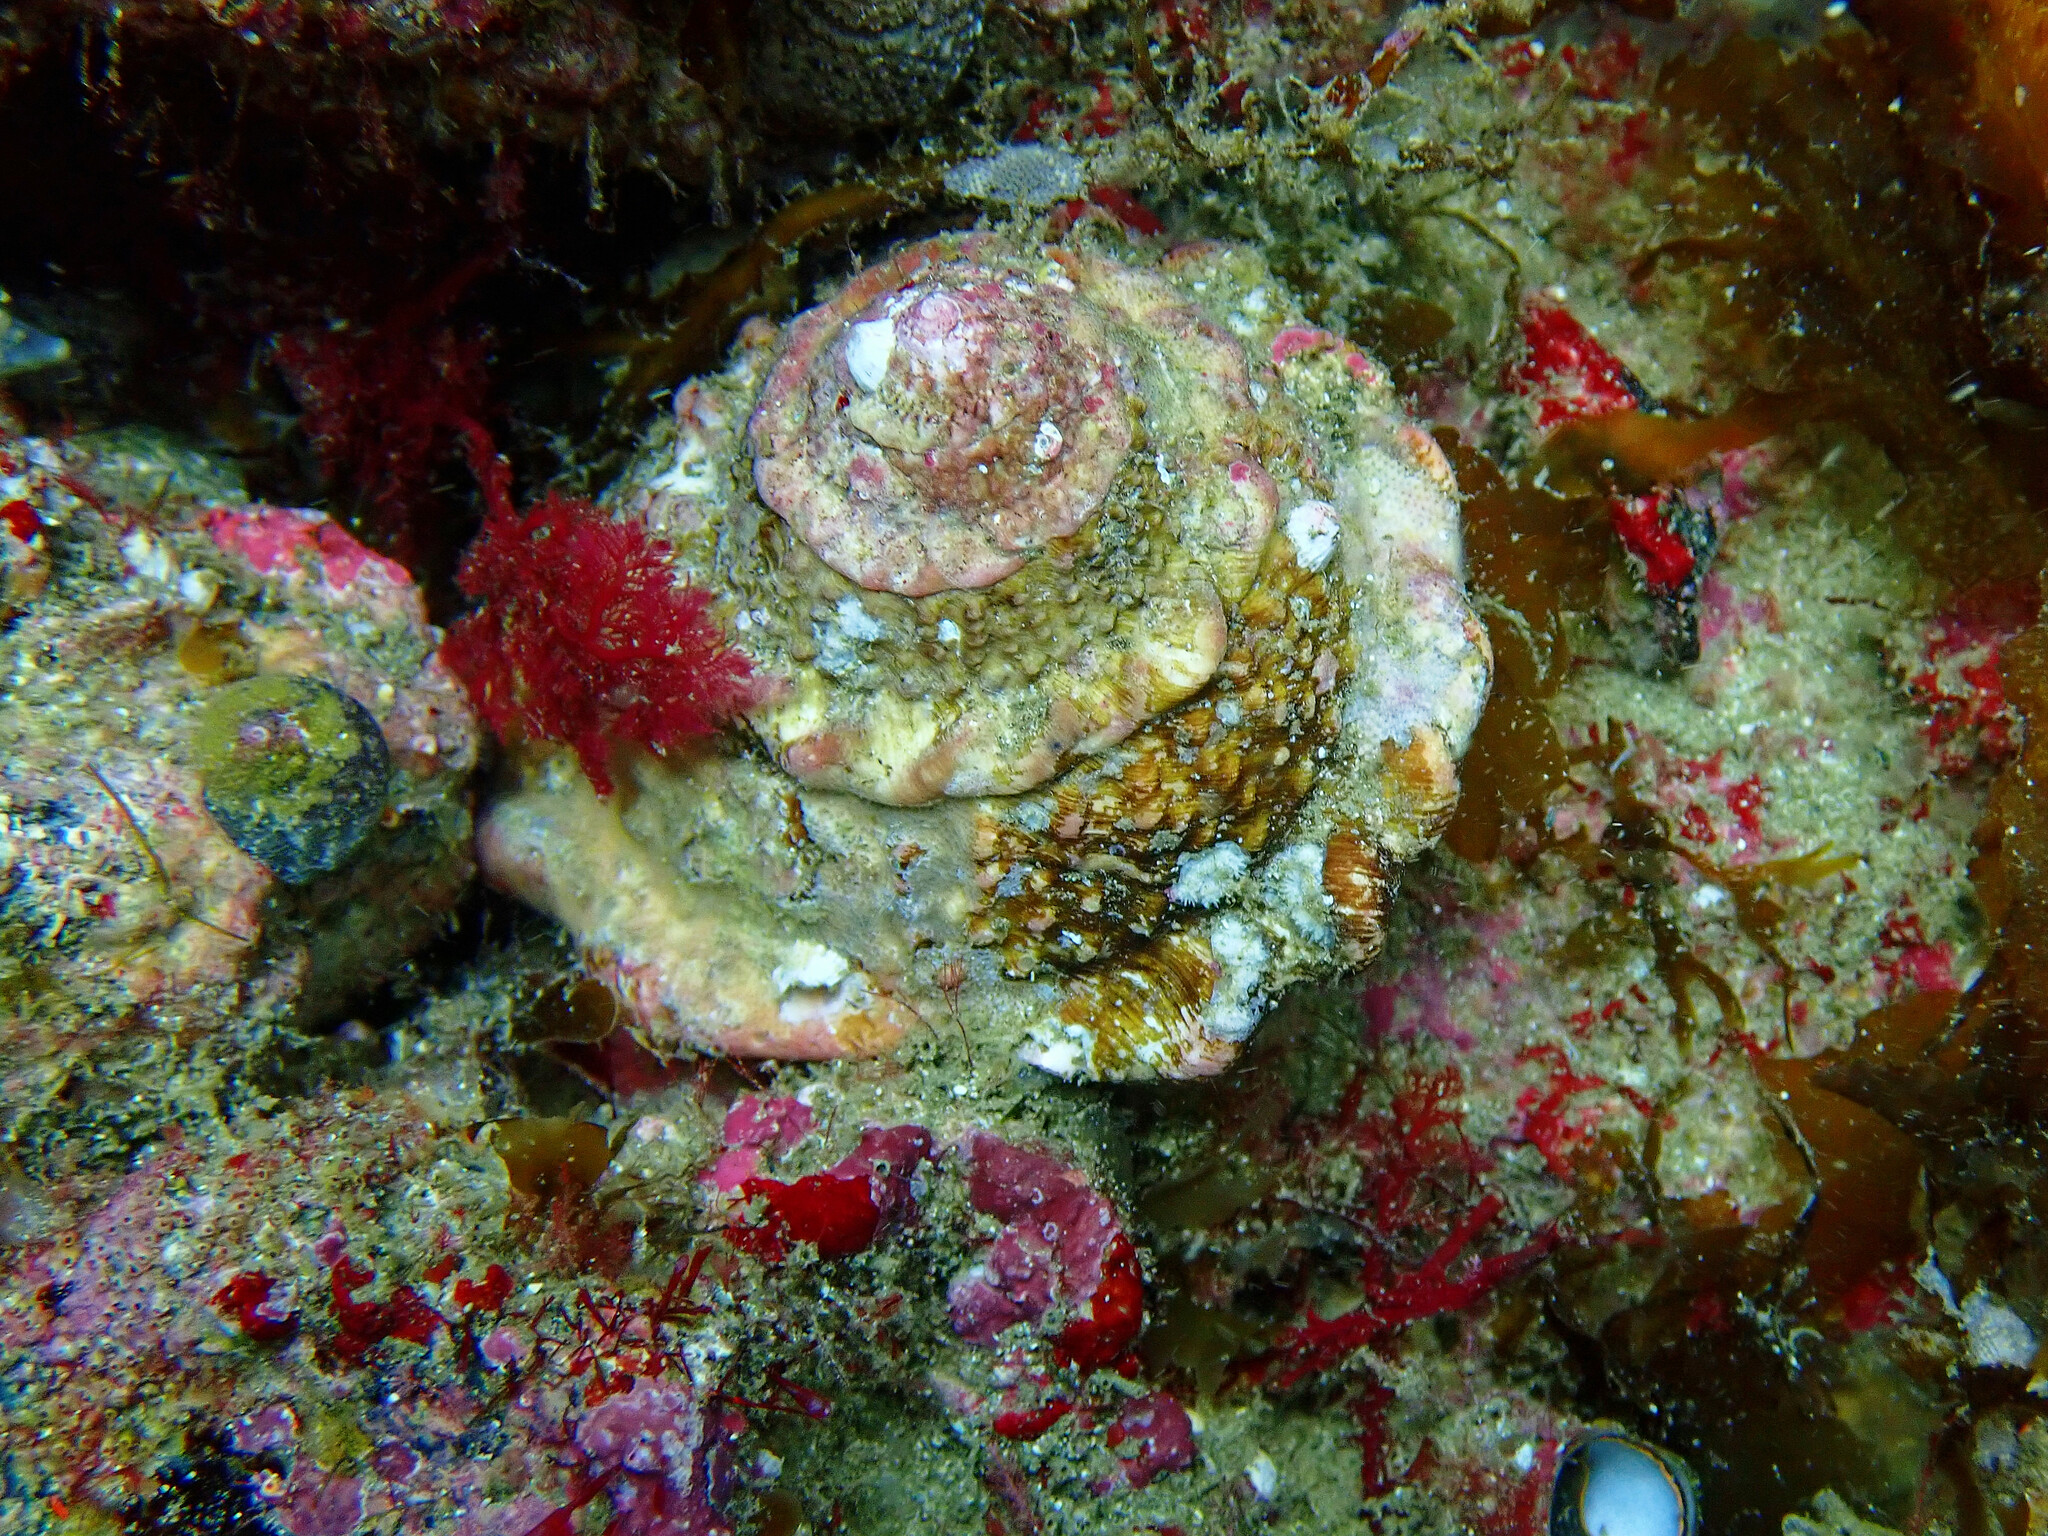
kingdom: Animalia
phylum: Mollusca
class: Gastropoda
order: Trochida
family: Turbinidae
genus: Megastraea
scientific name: Megastraea undosa
